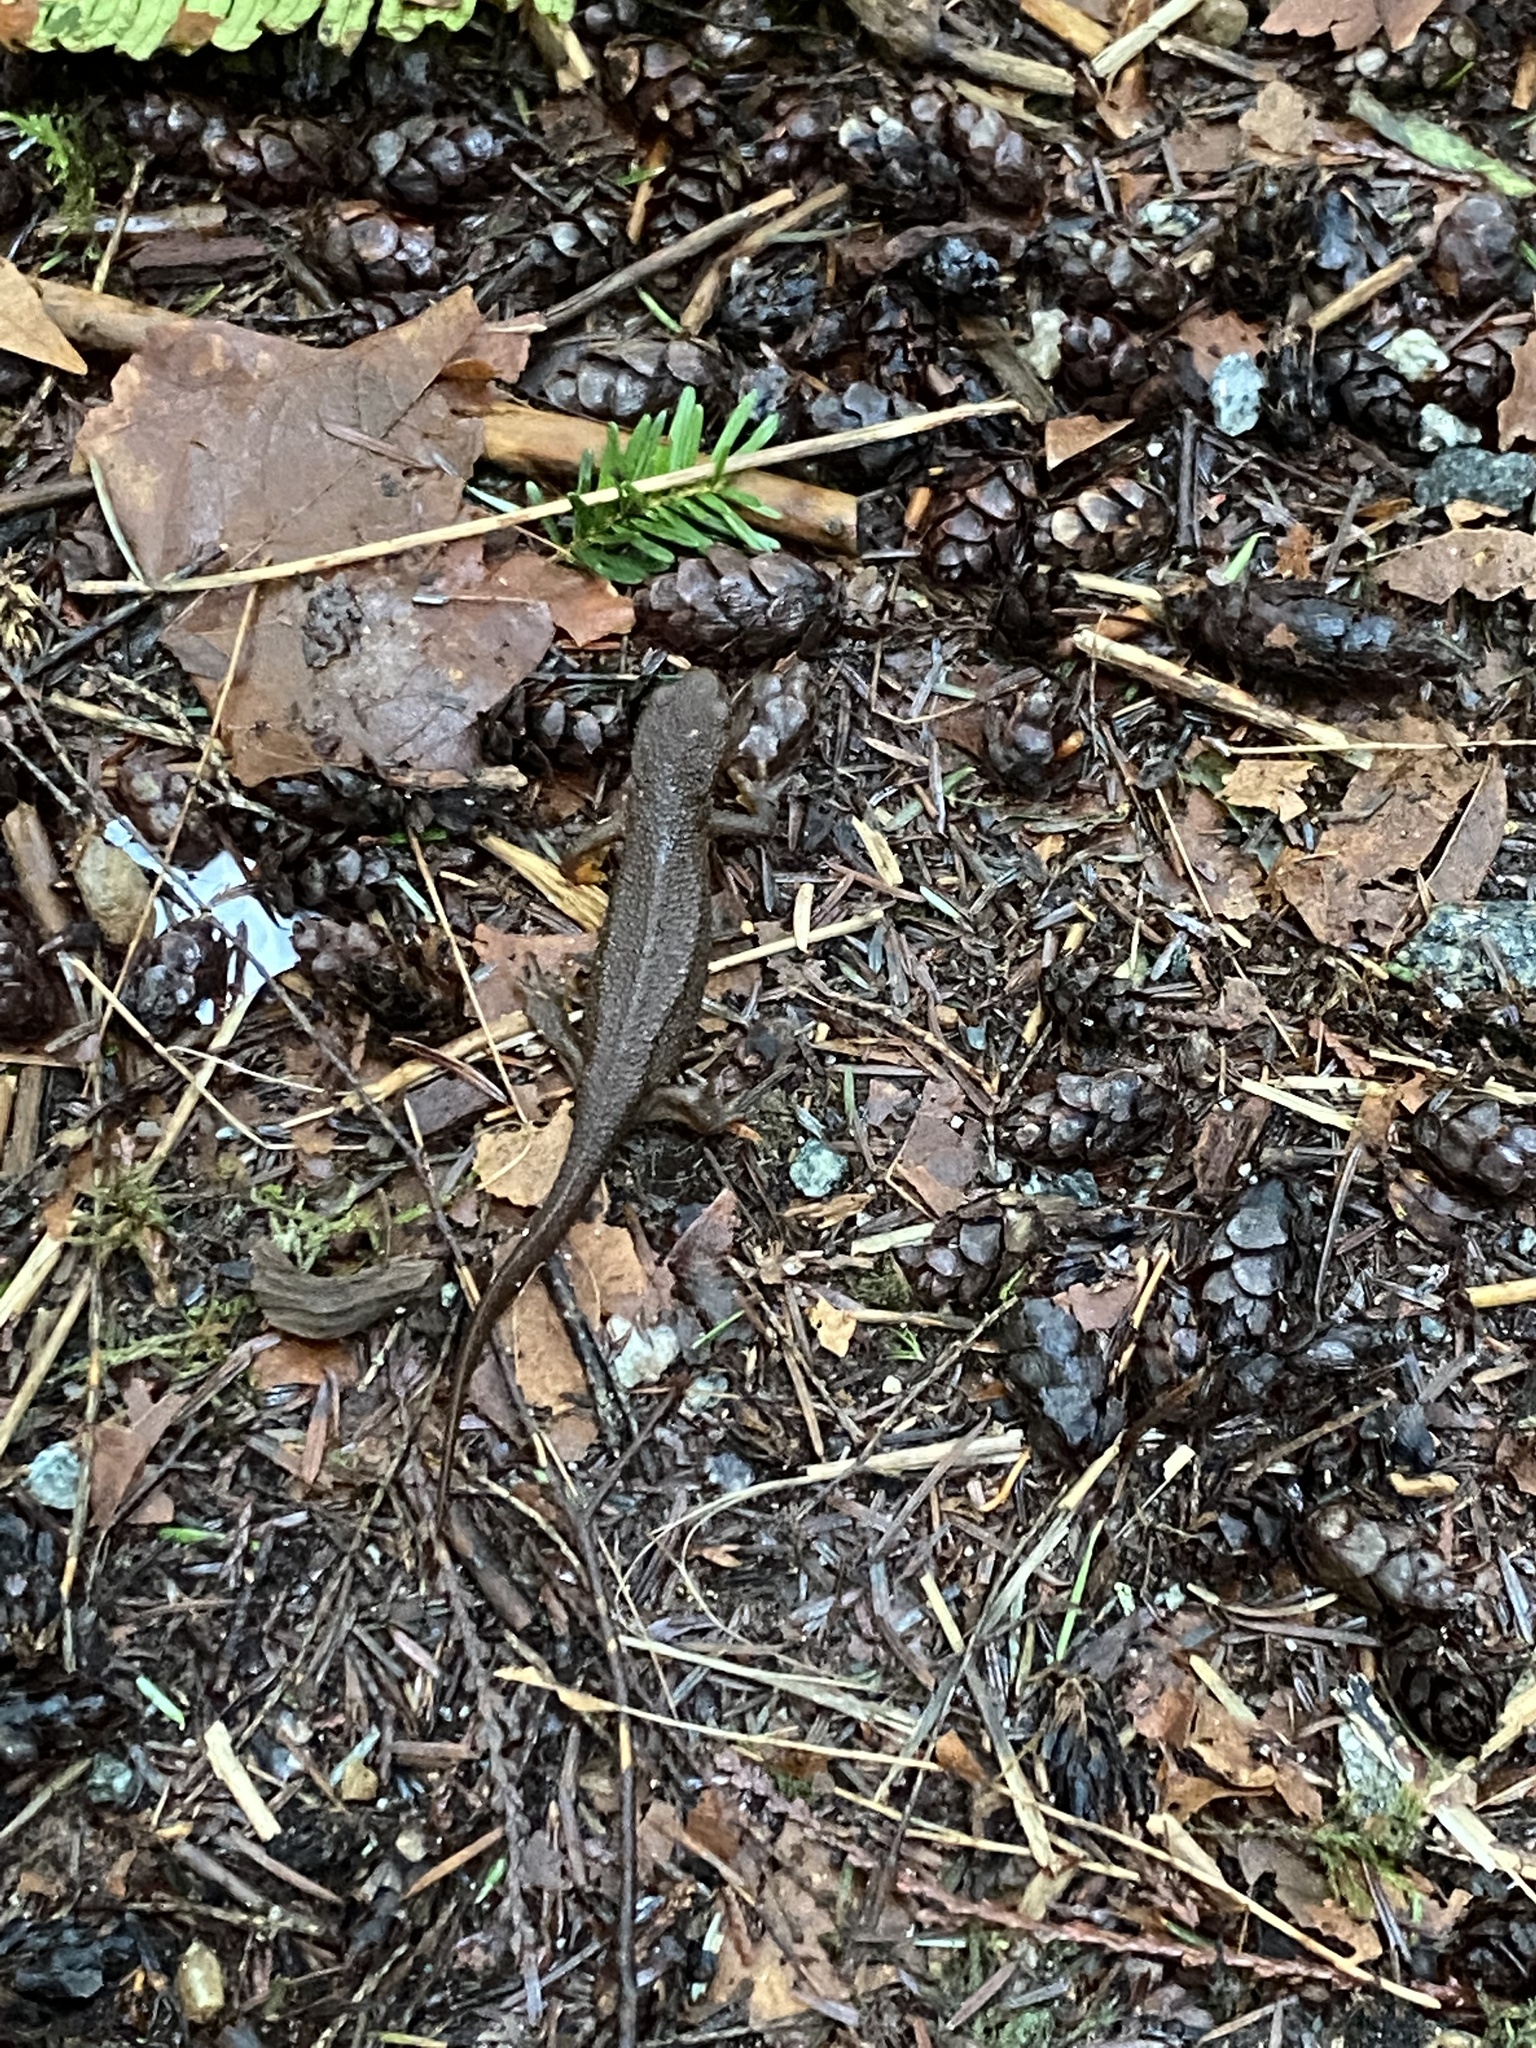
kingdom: Animalia
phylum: Chordata
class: Amphibia
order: Caudata
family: Salamandridae
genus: Taricha
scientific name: Taricha granulosa
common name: Roughskin newt
